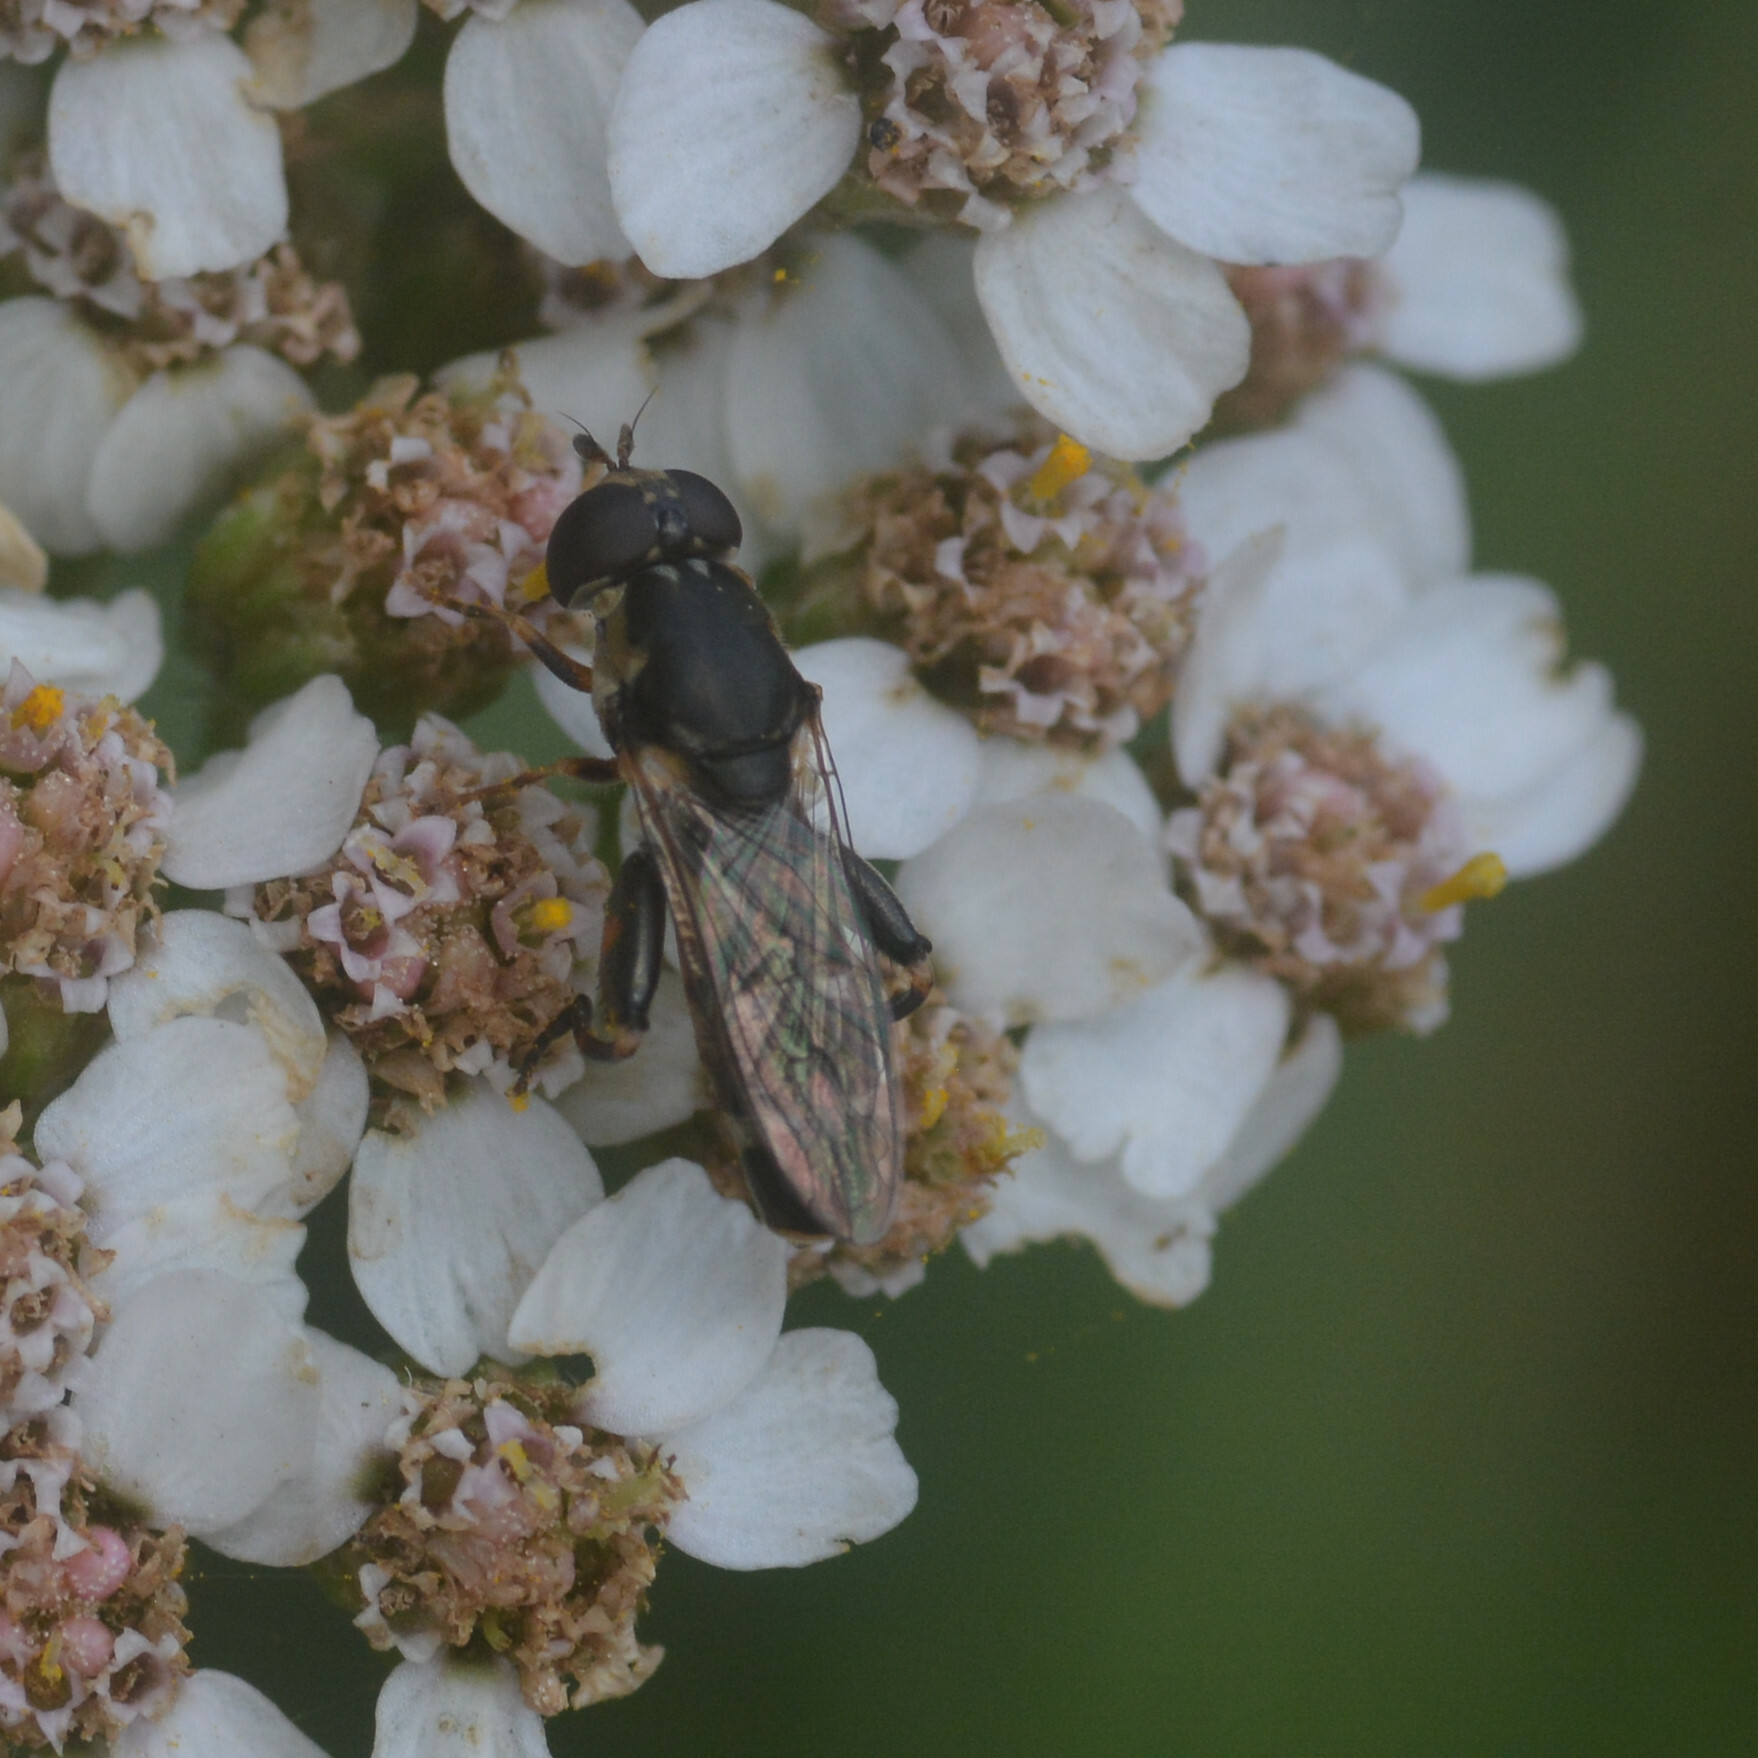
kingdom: Animalia
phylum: Arthropoda
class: Insecta
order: Diptera
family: Syrphidae
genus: Syritta
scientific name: Syritta pipiens
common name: Hover fly
